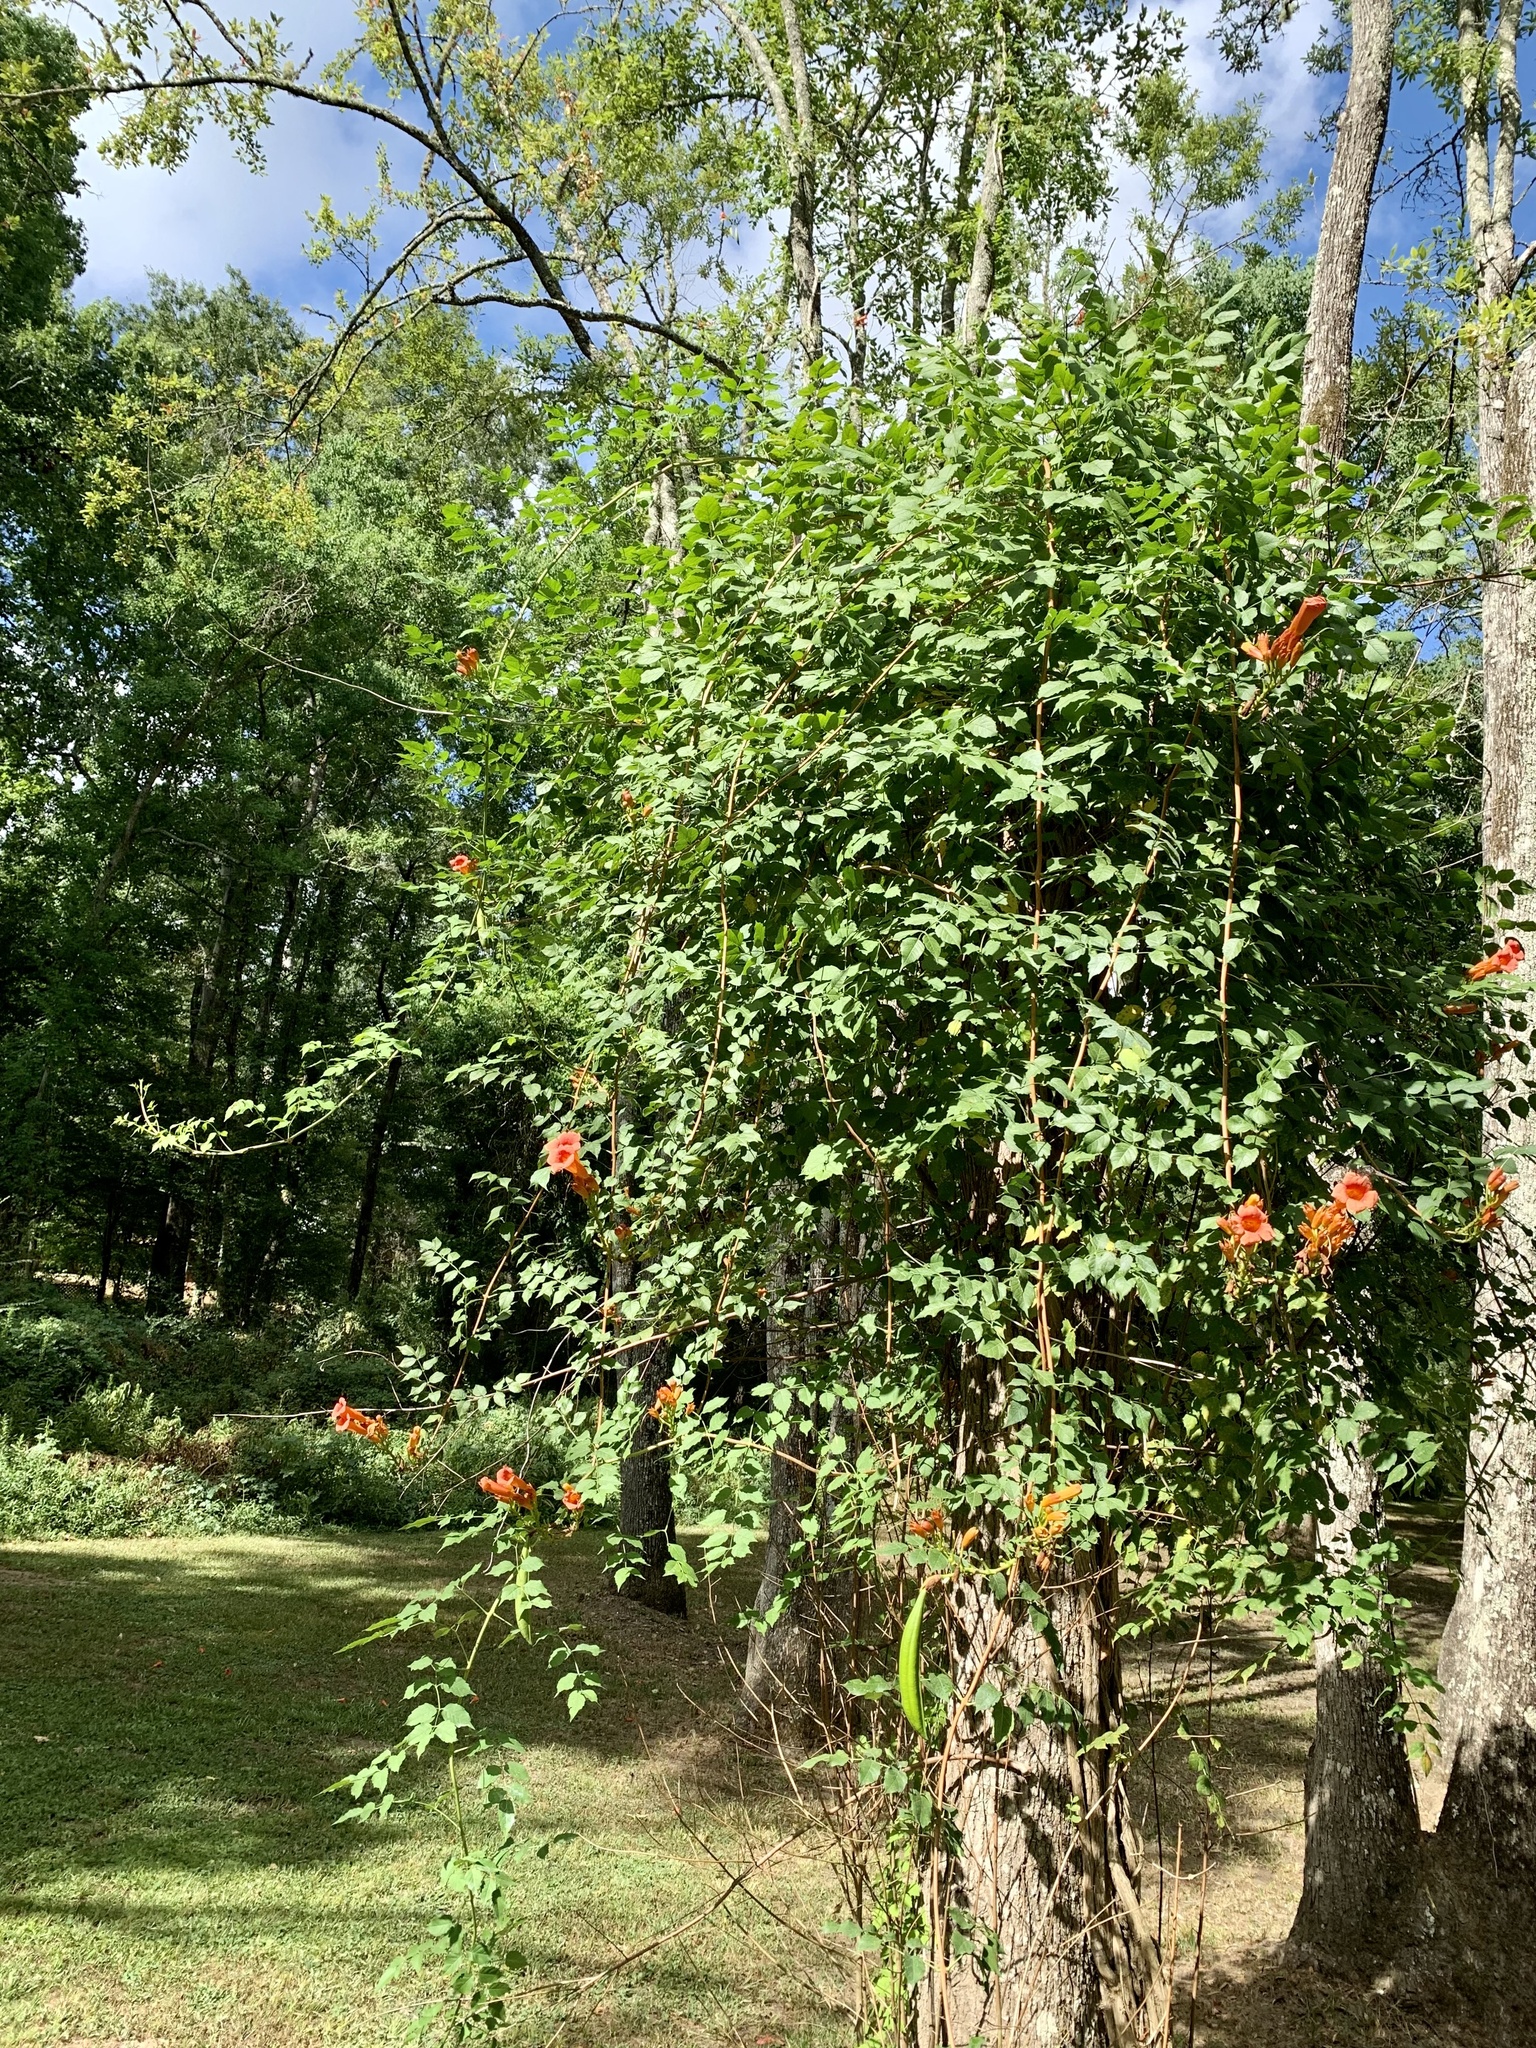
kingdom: Plantae
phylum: Tracheophyta
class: Magnoliopsida
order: Lamiales
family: Bignoniaceae
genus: Campsis
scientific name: Campsis radicans
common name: Trumpet-creeper
